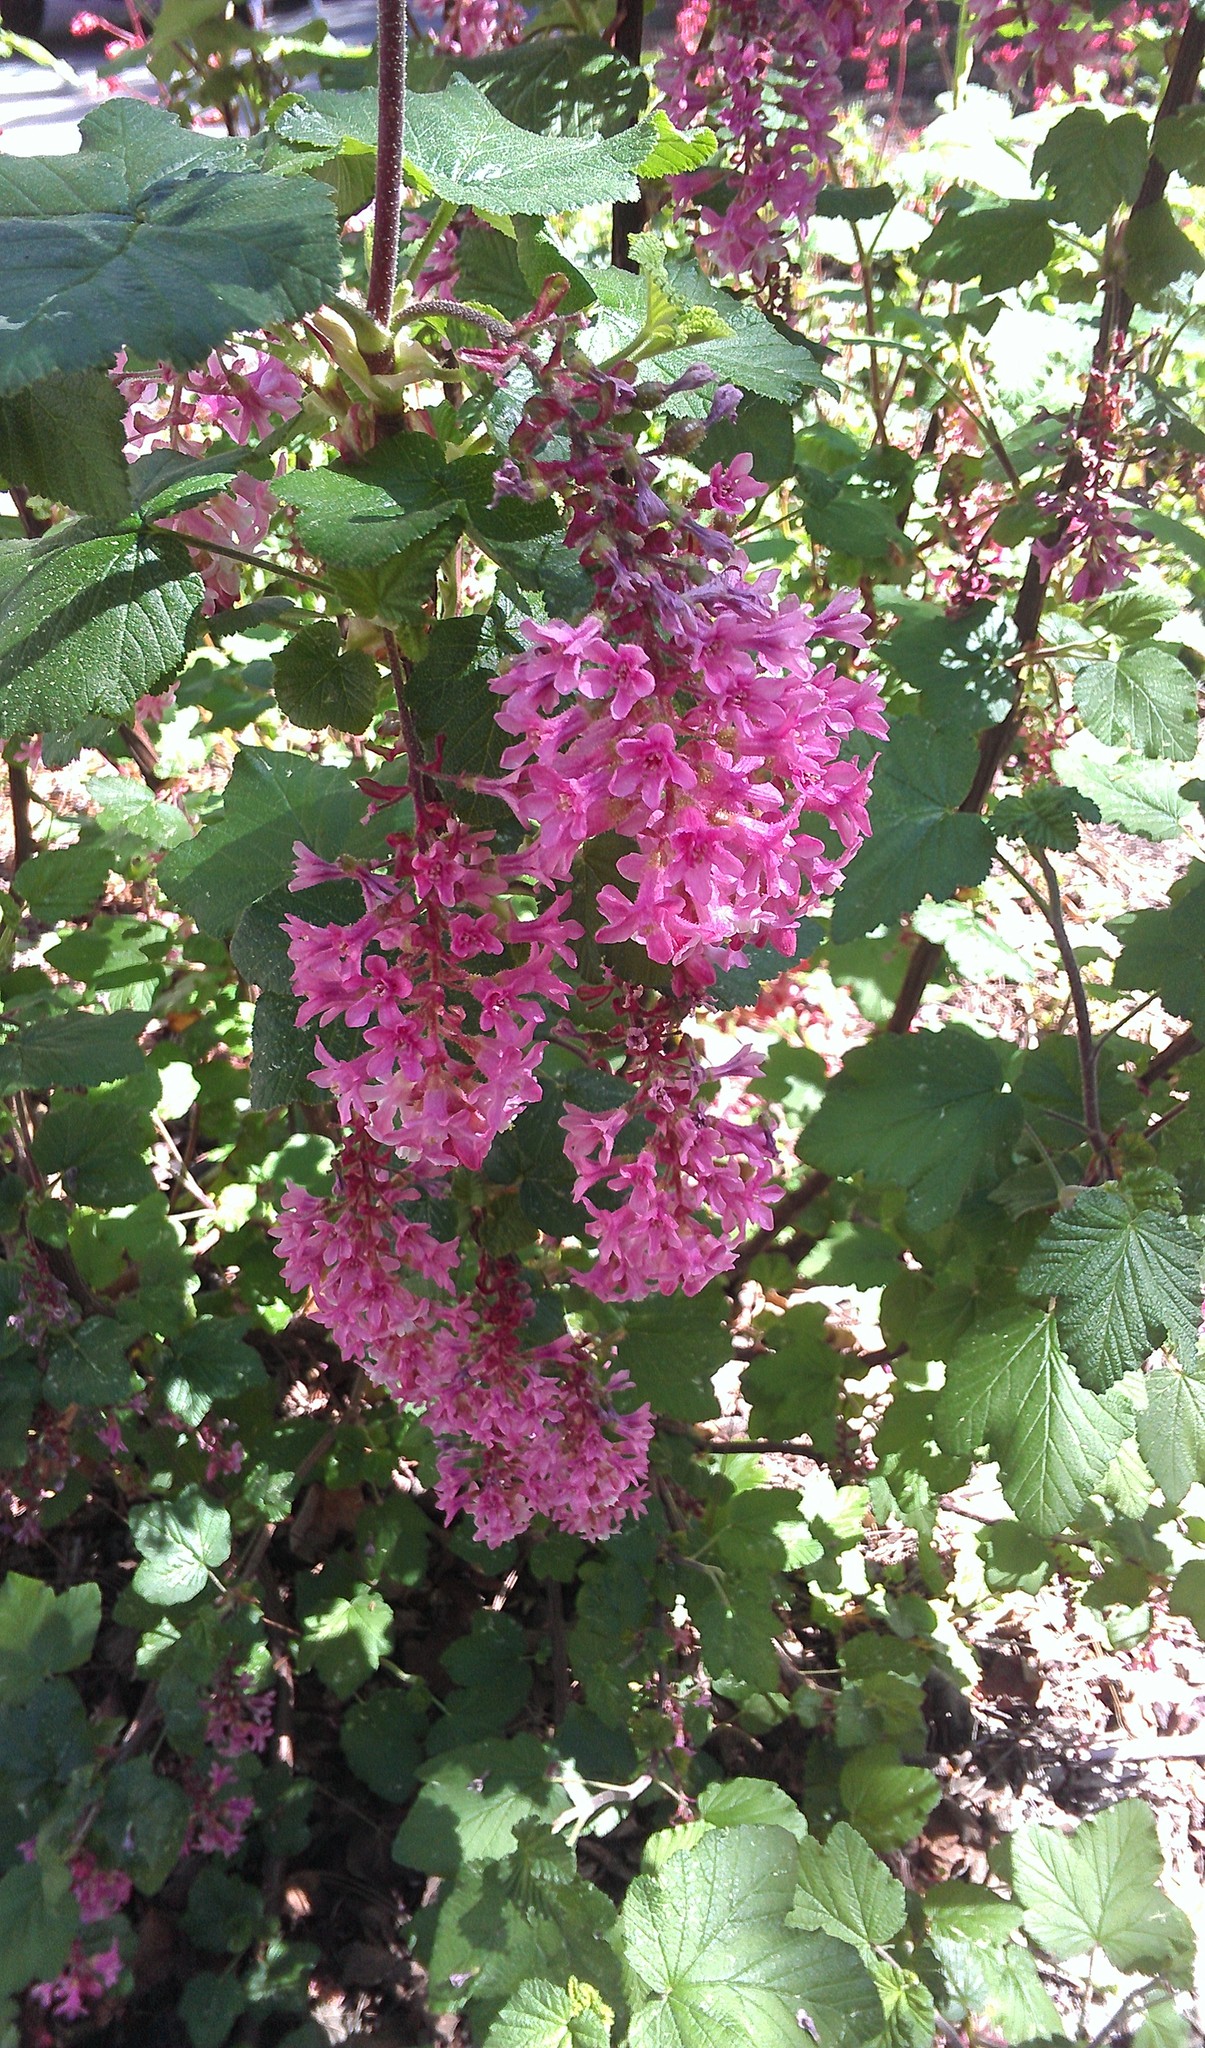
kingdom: Plantae
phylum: Tracheophyta
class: Magnoliopsida
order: Saxifragales
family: Grossulariaceae
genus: Ribes
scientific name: Ribes sanguineum
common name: Flowering currant
